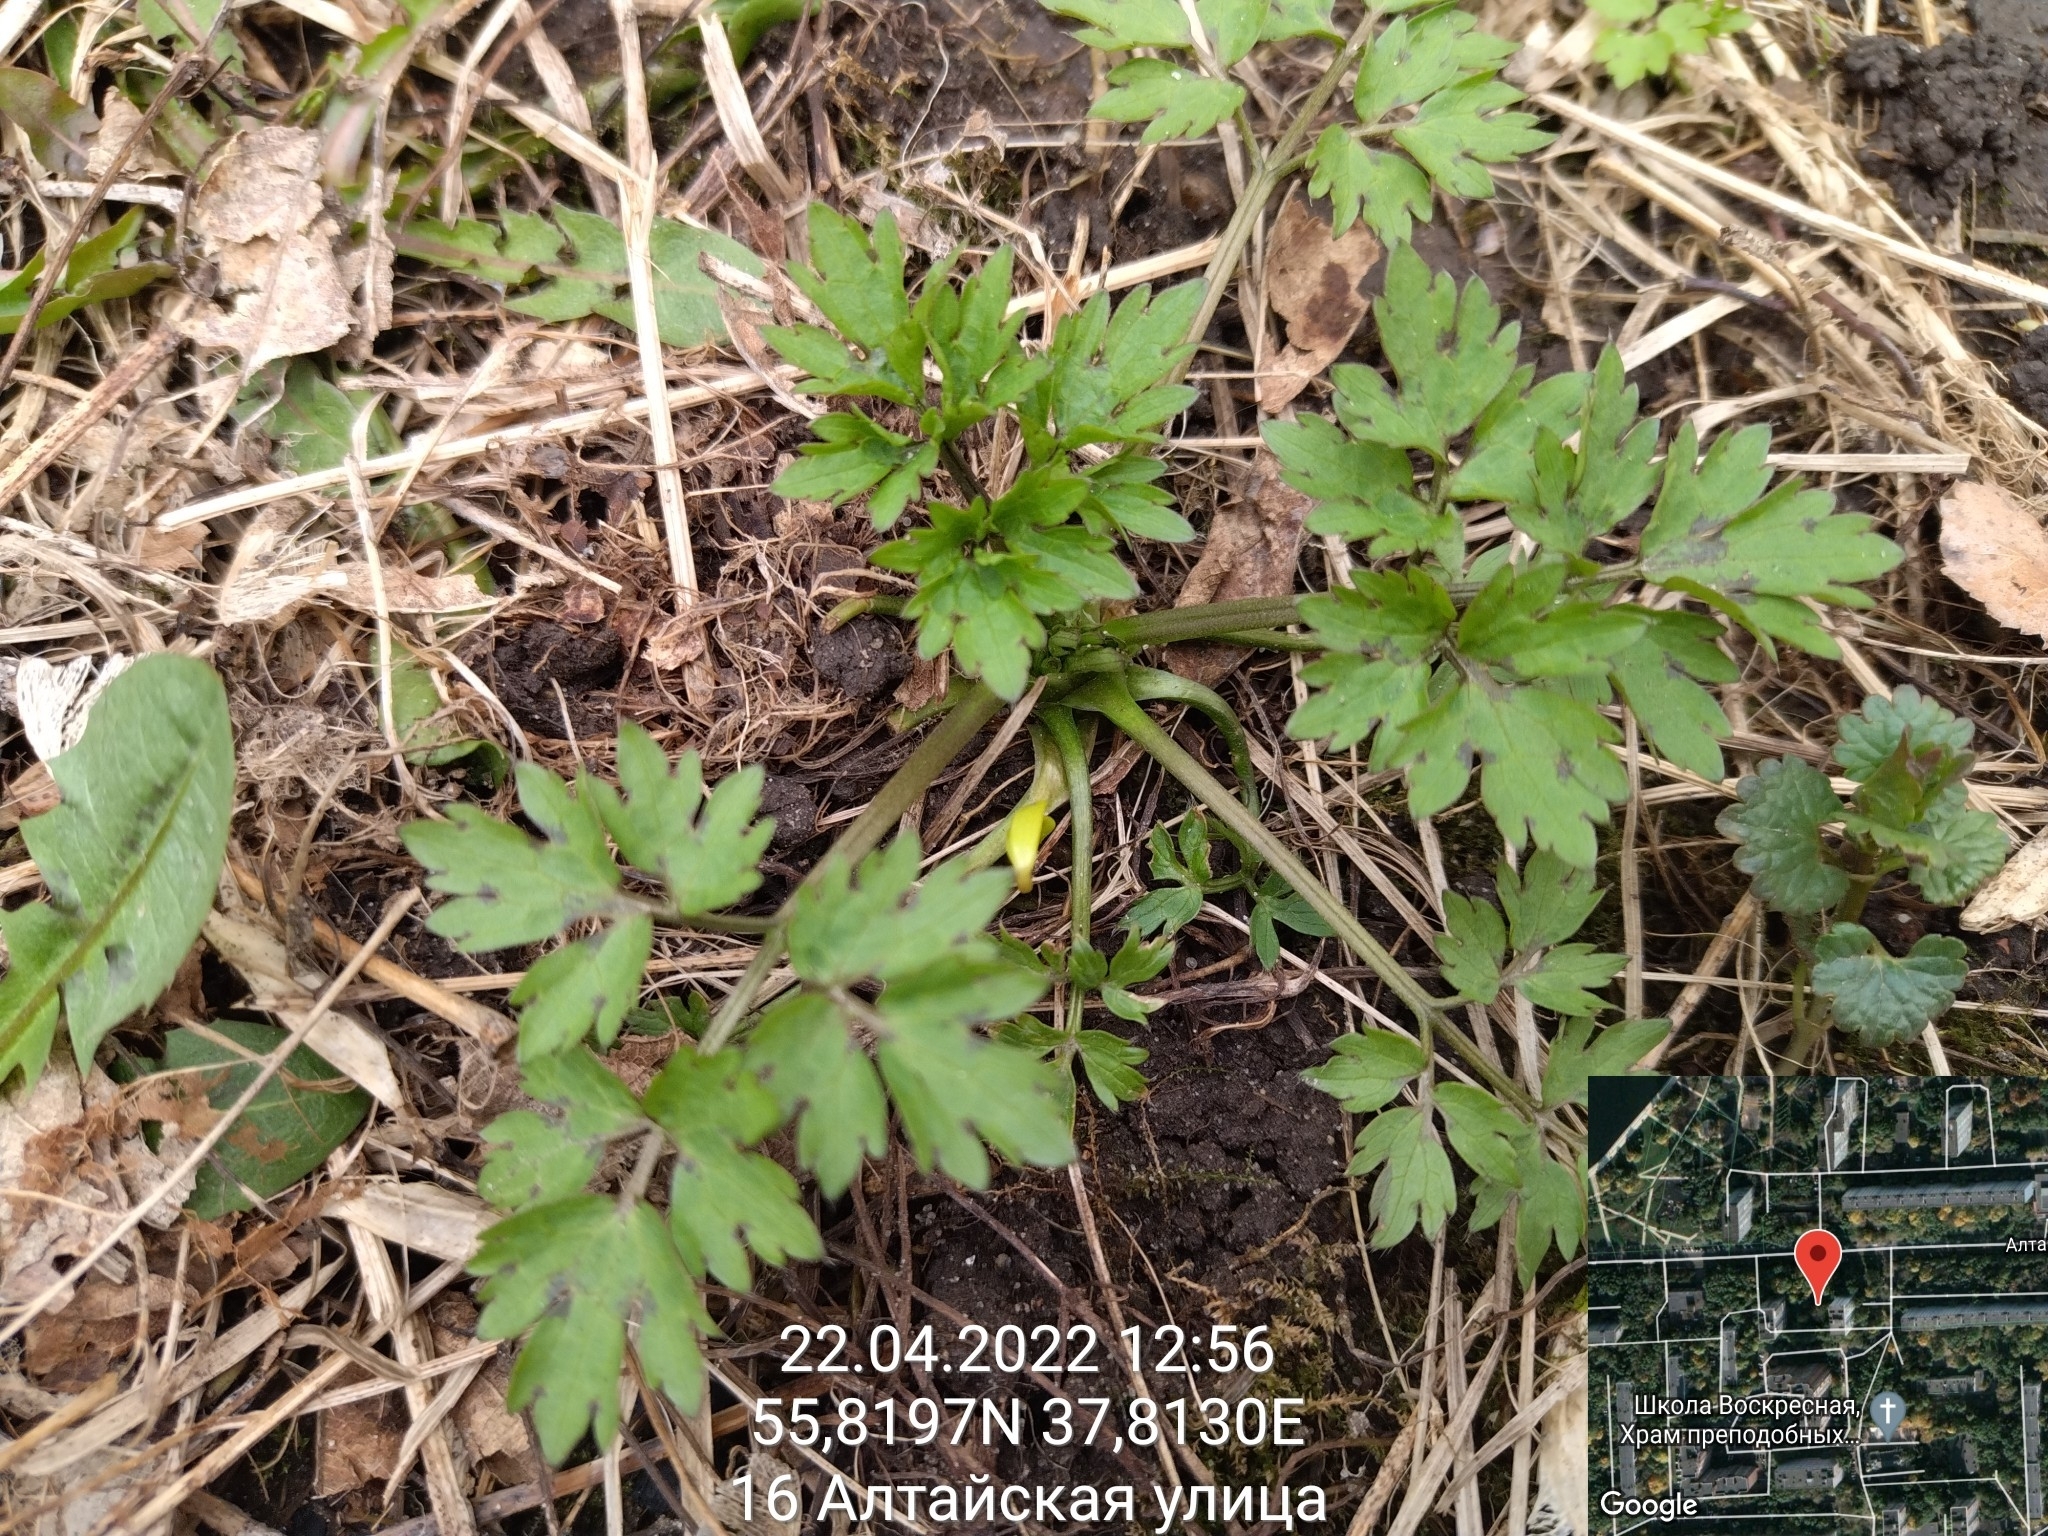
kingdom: Plantae
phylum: Tracheophyta
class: Magnoliopsida
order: Ranunculales
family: Ranunculaceae
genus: Ranunculus
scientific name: Ranunculus repens
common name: Creeping buttercup
